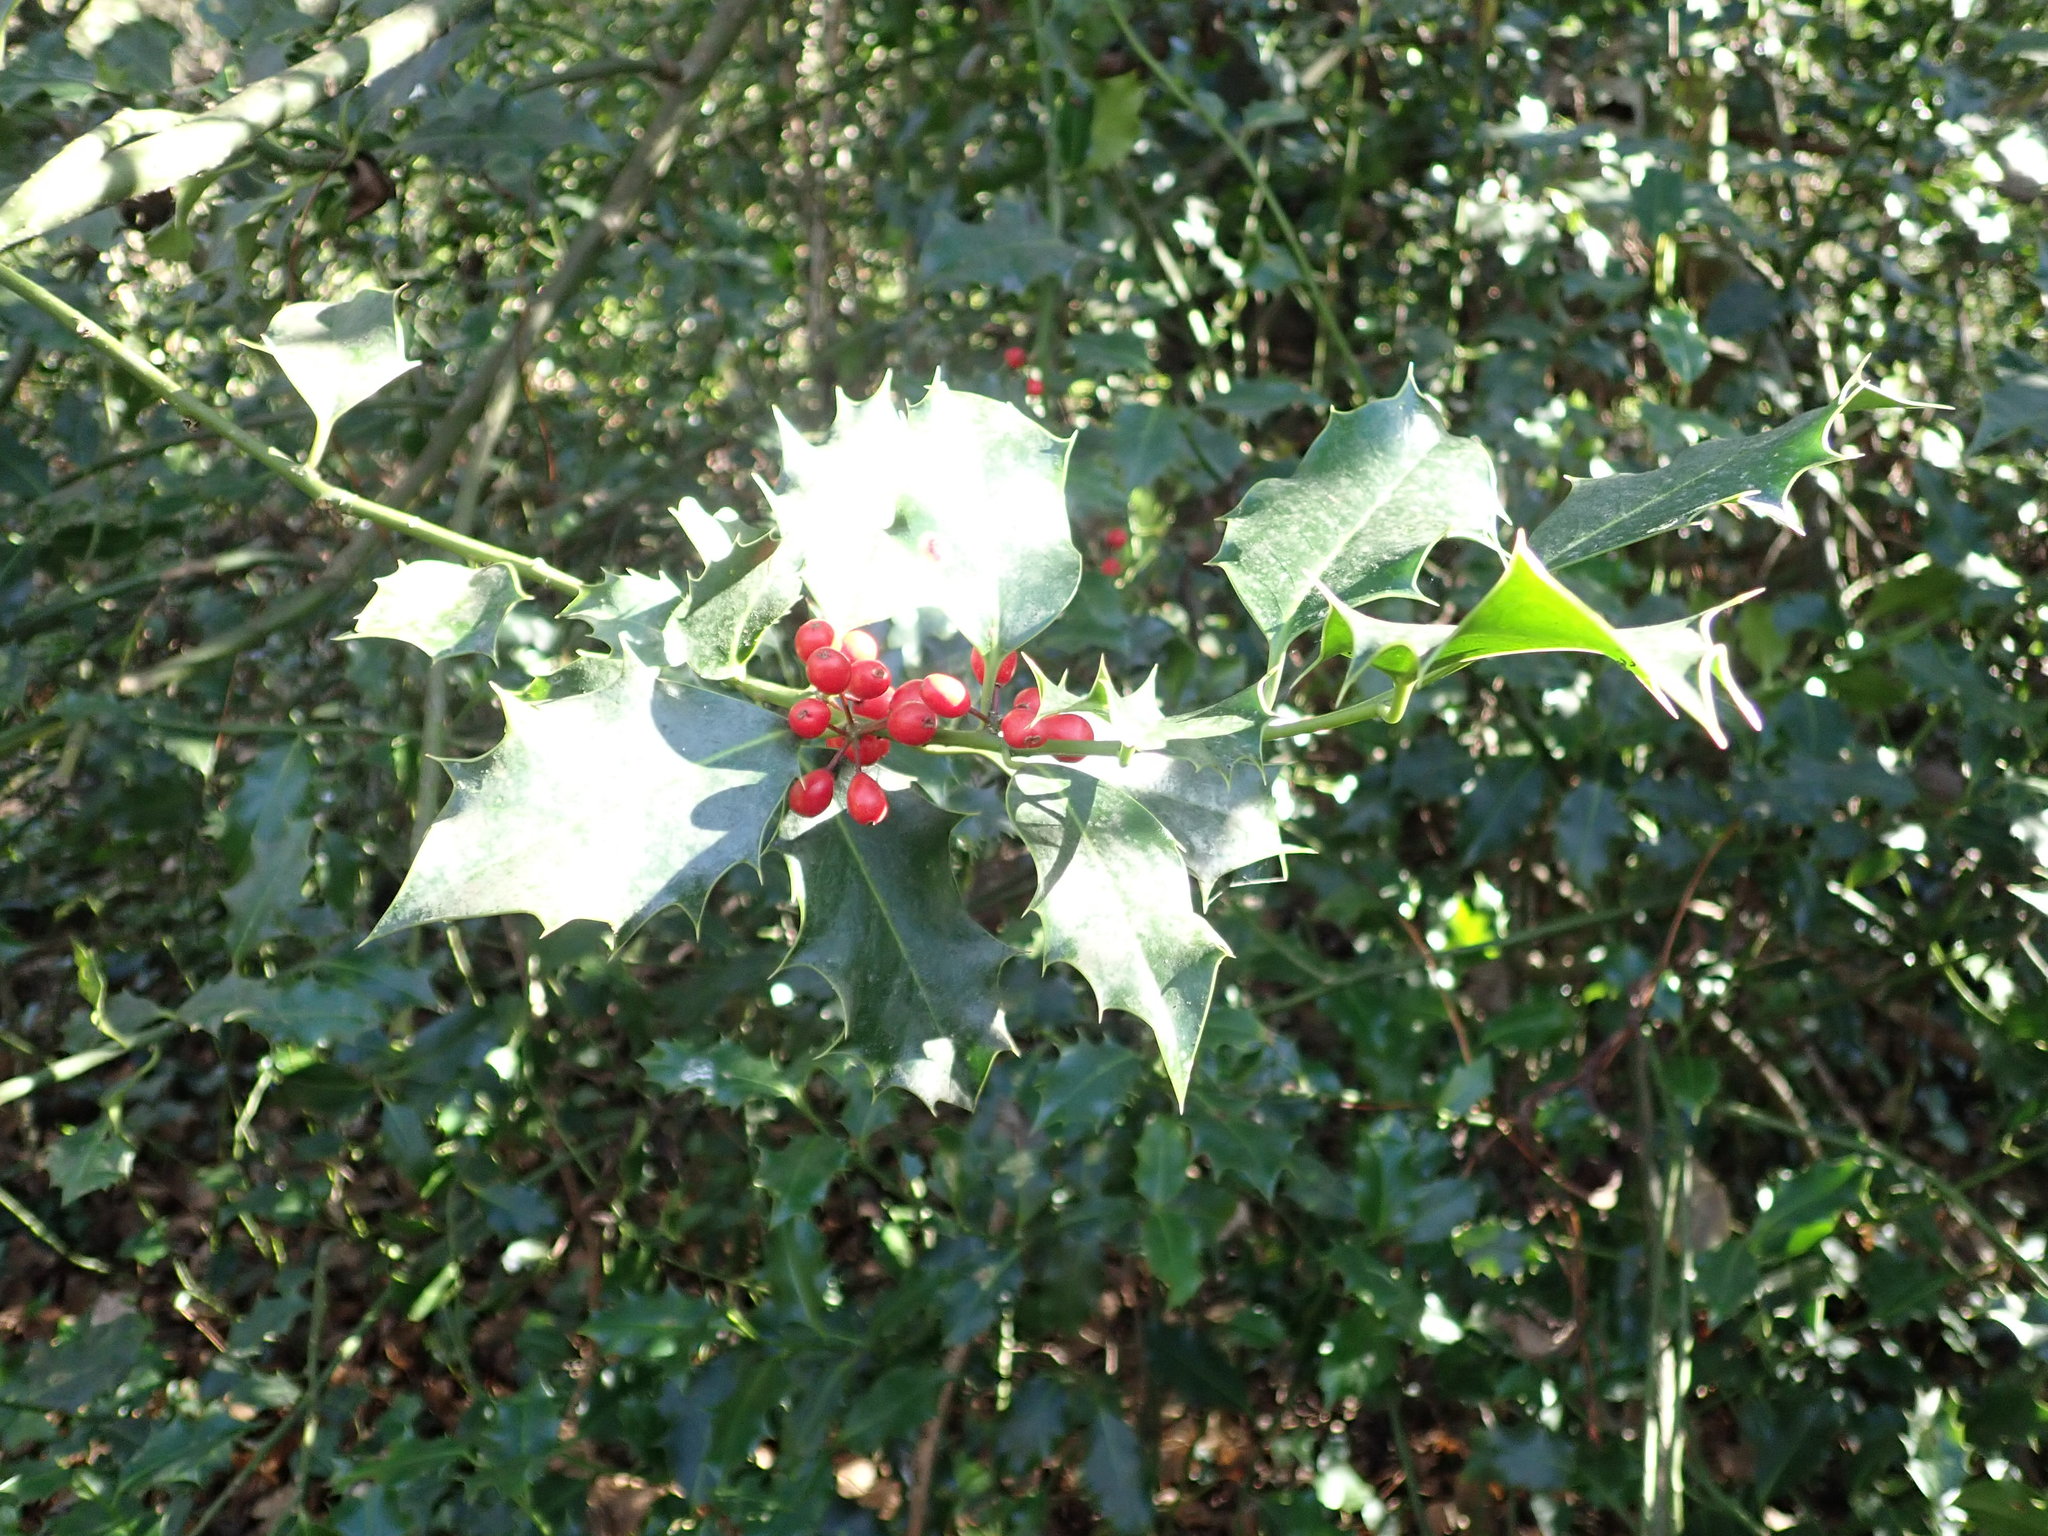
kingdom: Plantae
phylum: Tracheophyta
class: Magnoliopsida
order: Aquifoliales
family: Aquifoliaceae
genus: Ilex
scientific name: Ilex aquifolium
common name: English holly
